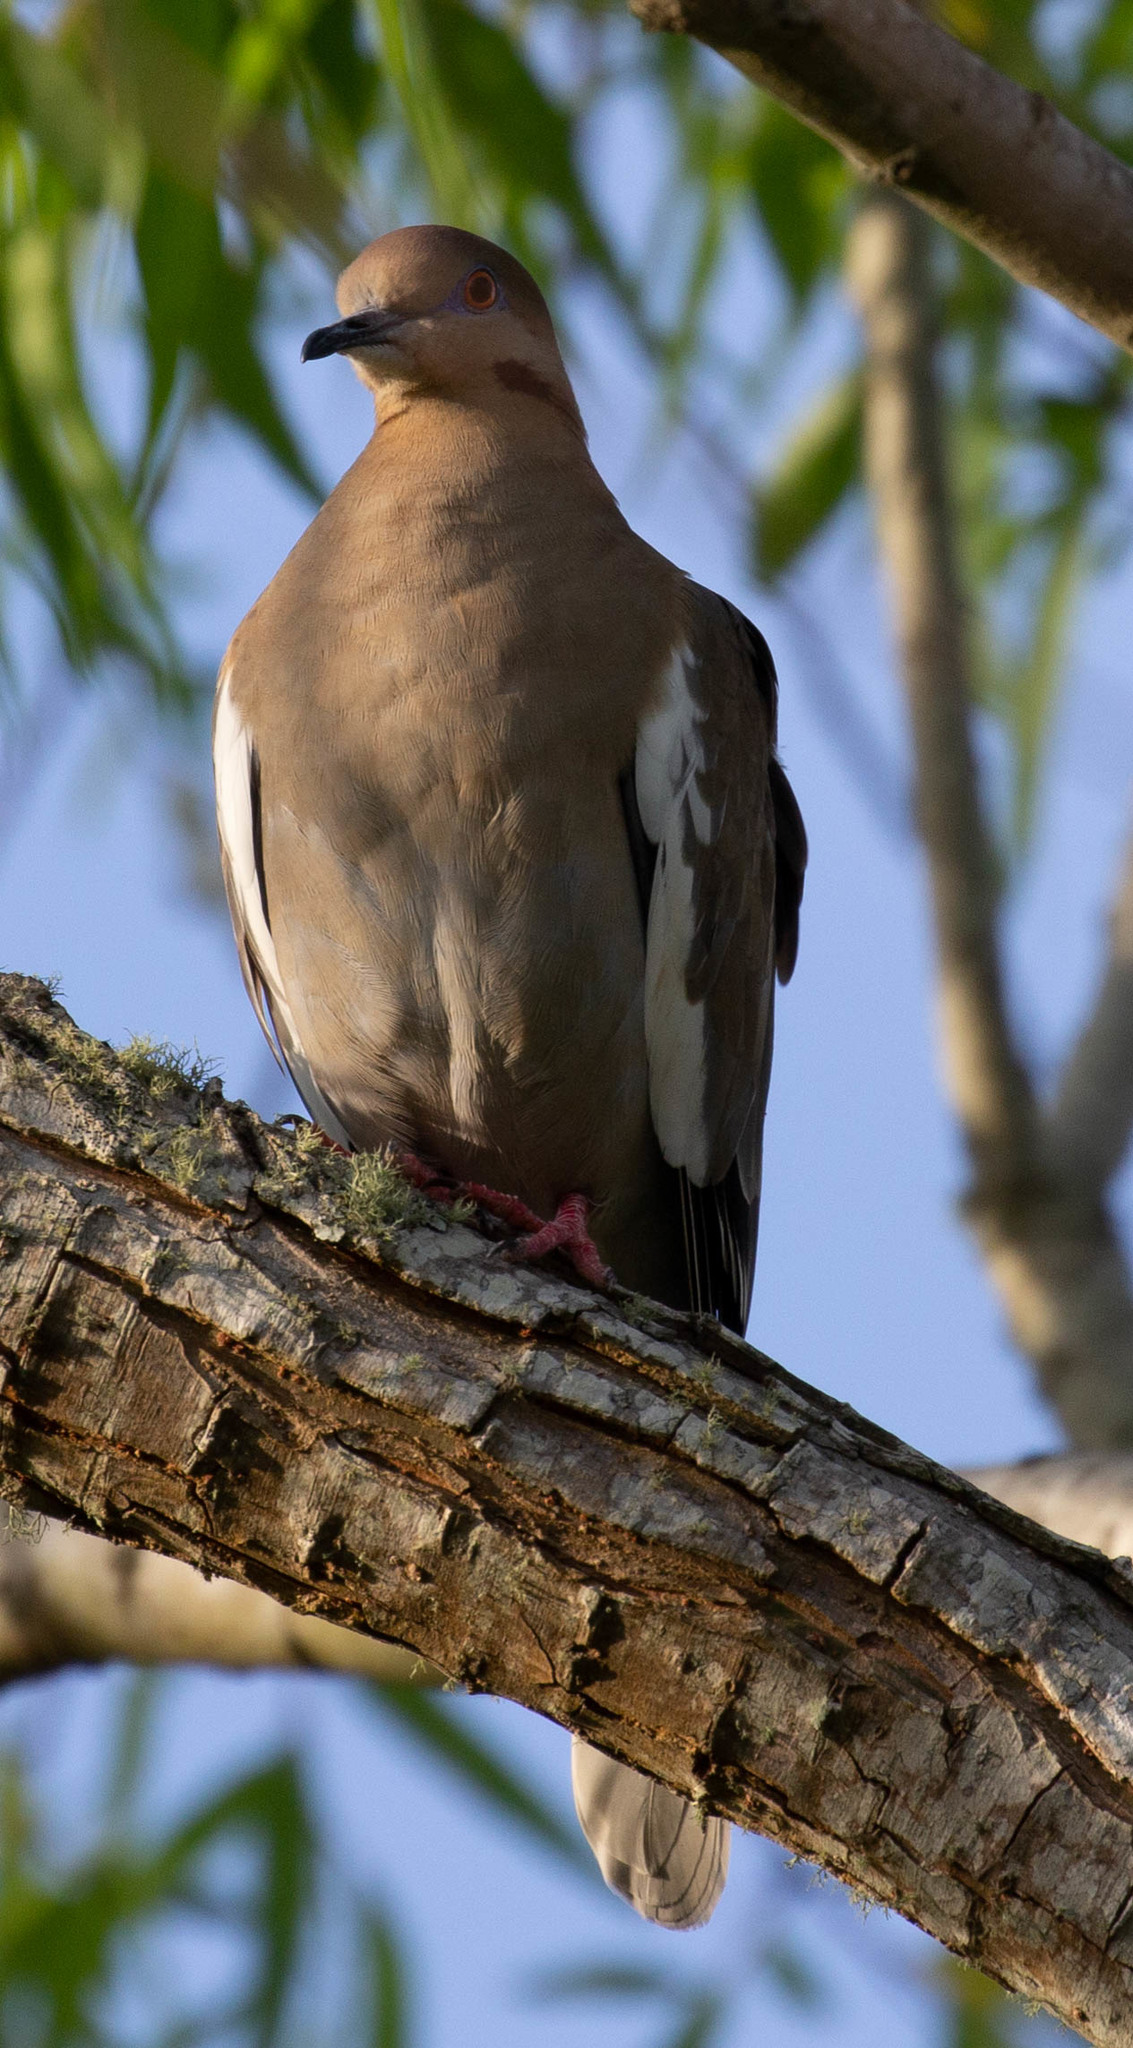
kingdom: Animalia
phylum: Chordata
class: Aves
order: Columbiformes
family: Columbidae
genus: Zenaida
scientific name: Zenaida asiatica
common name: White-winged dove
